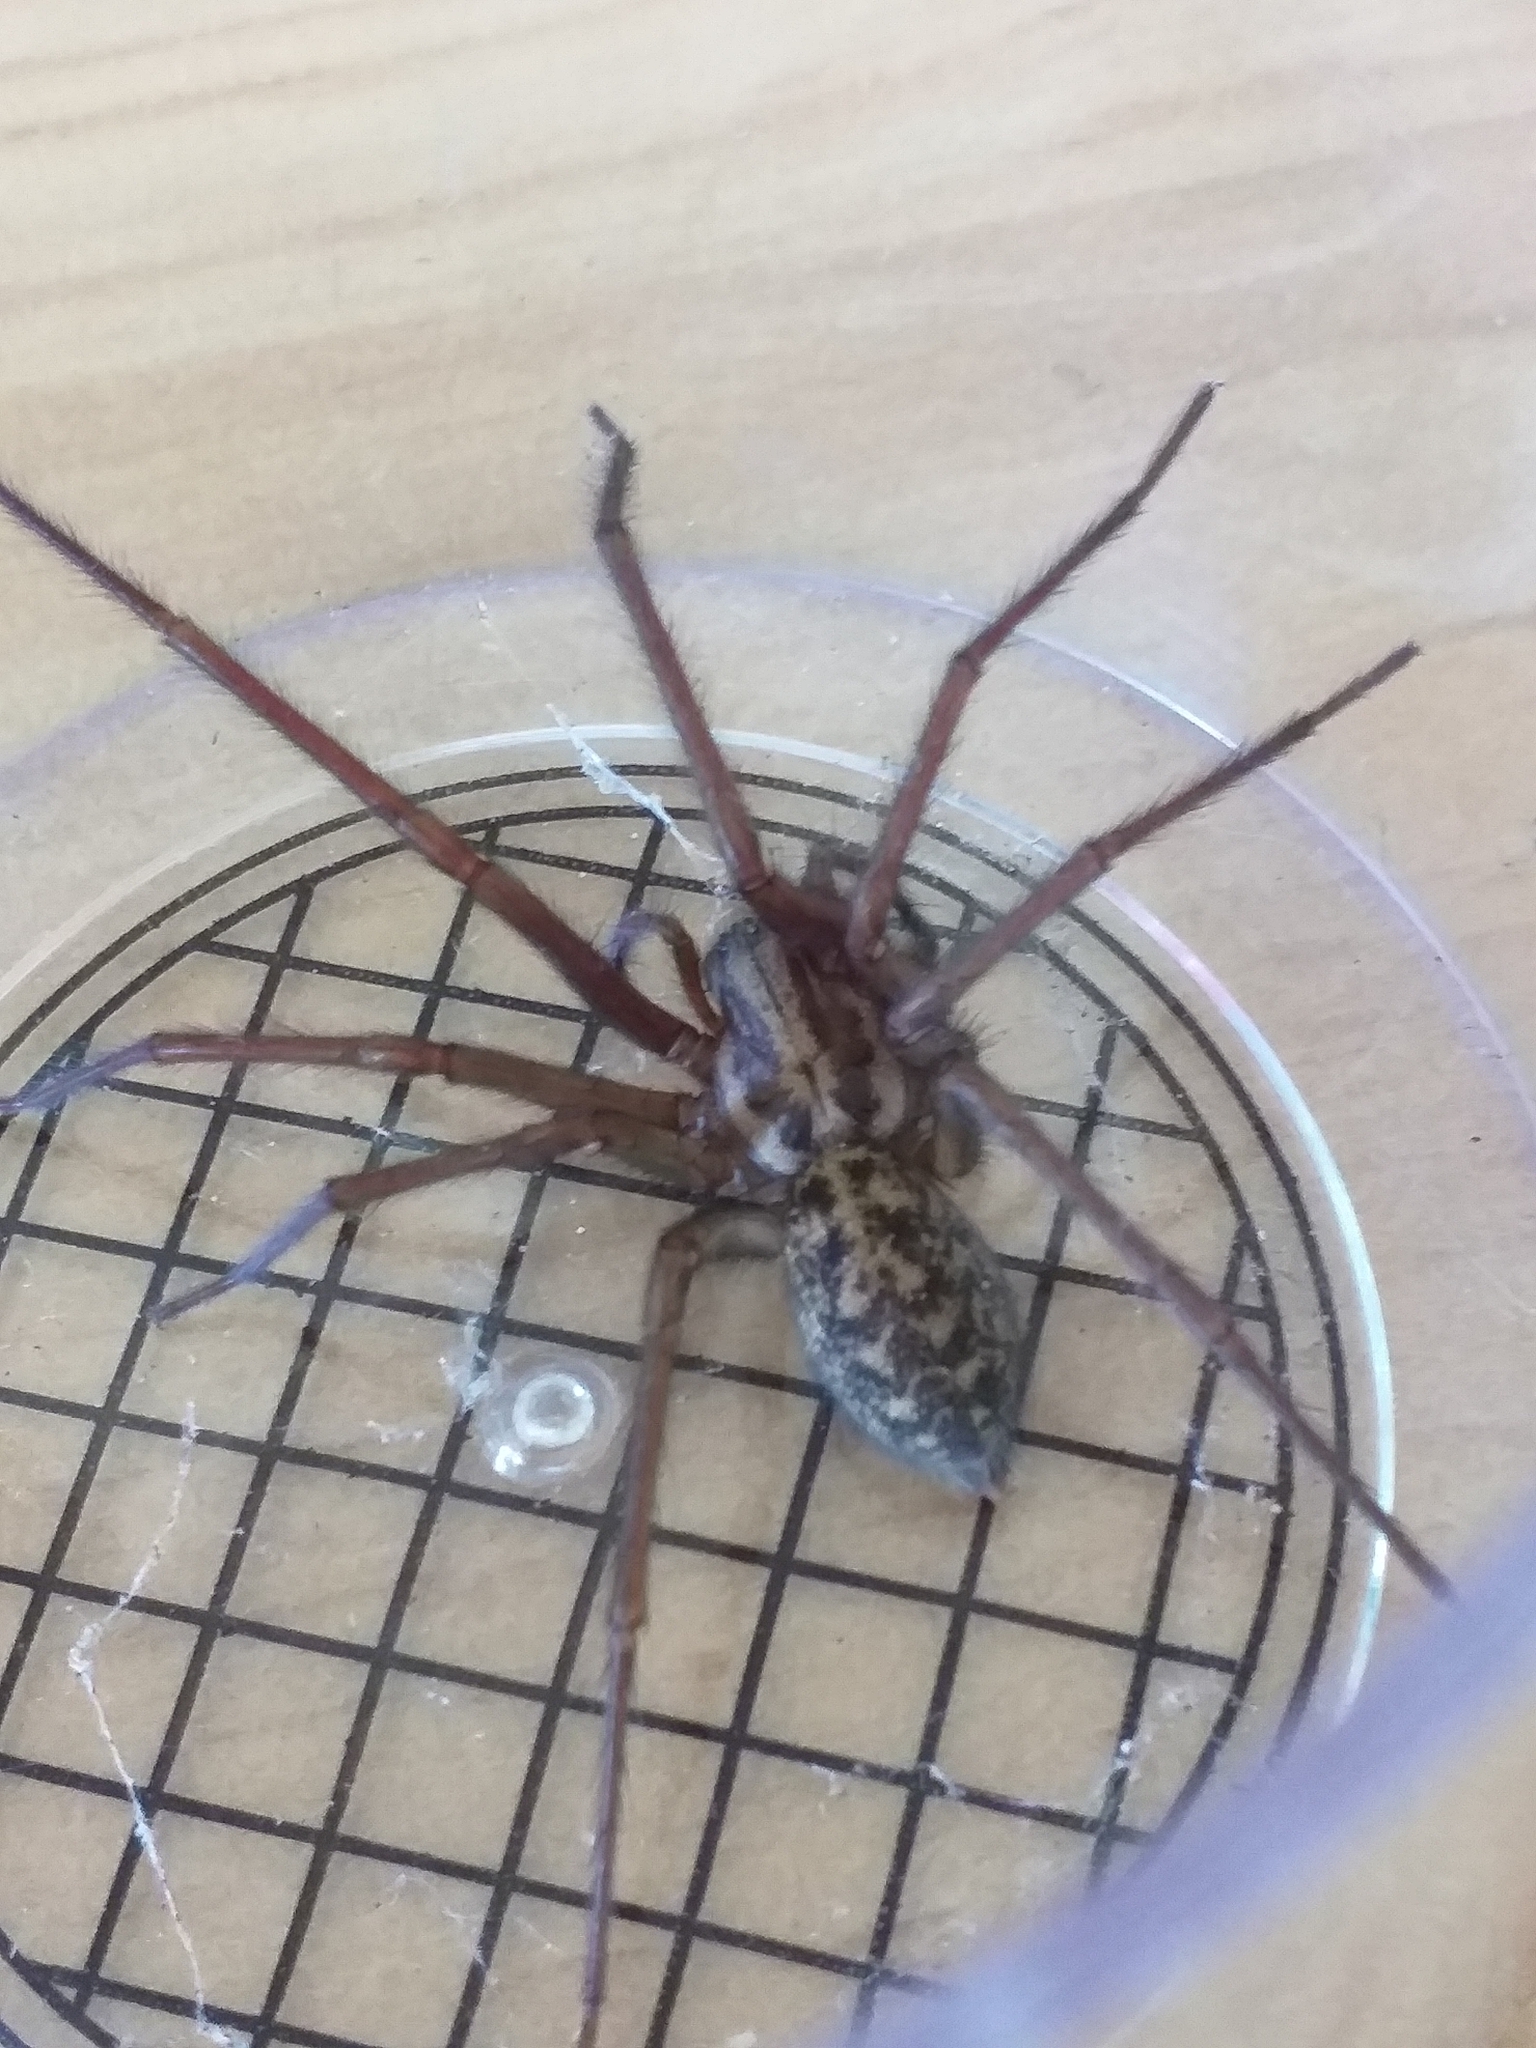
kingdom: Animalia
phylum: Arthropoda
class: Arachnida
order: Araneae
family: Agelenidae
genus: Eratigena
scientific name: Eratigena duellica
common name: Giant house spider
